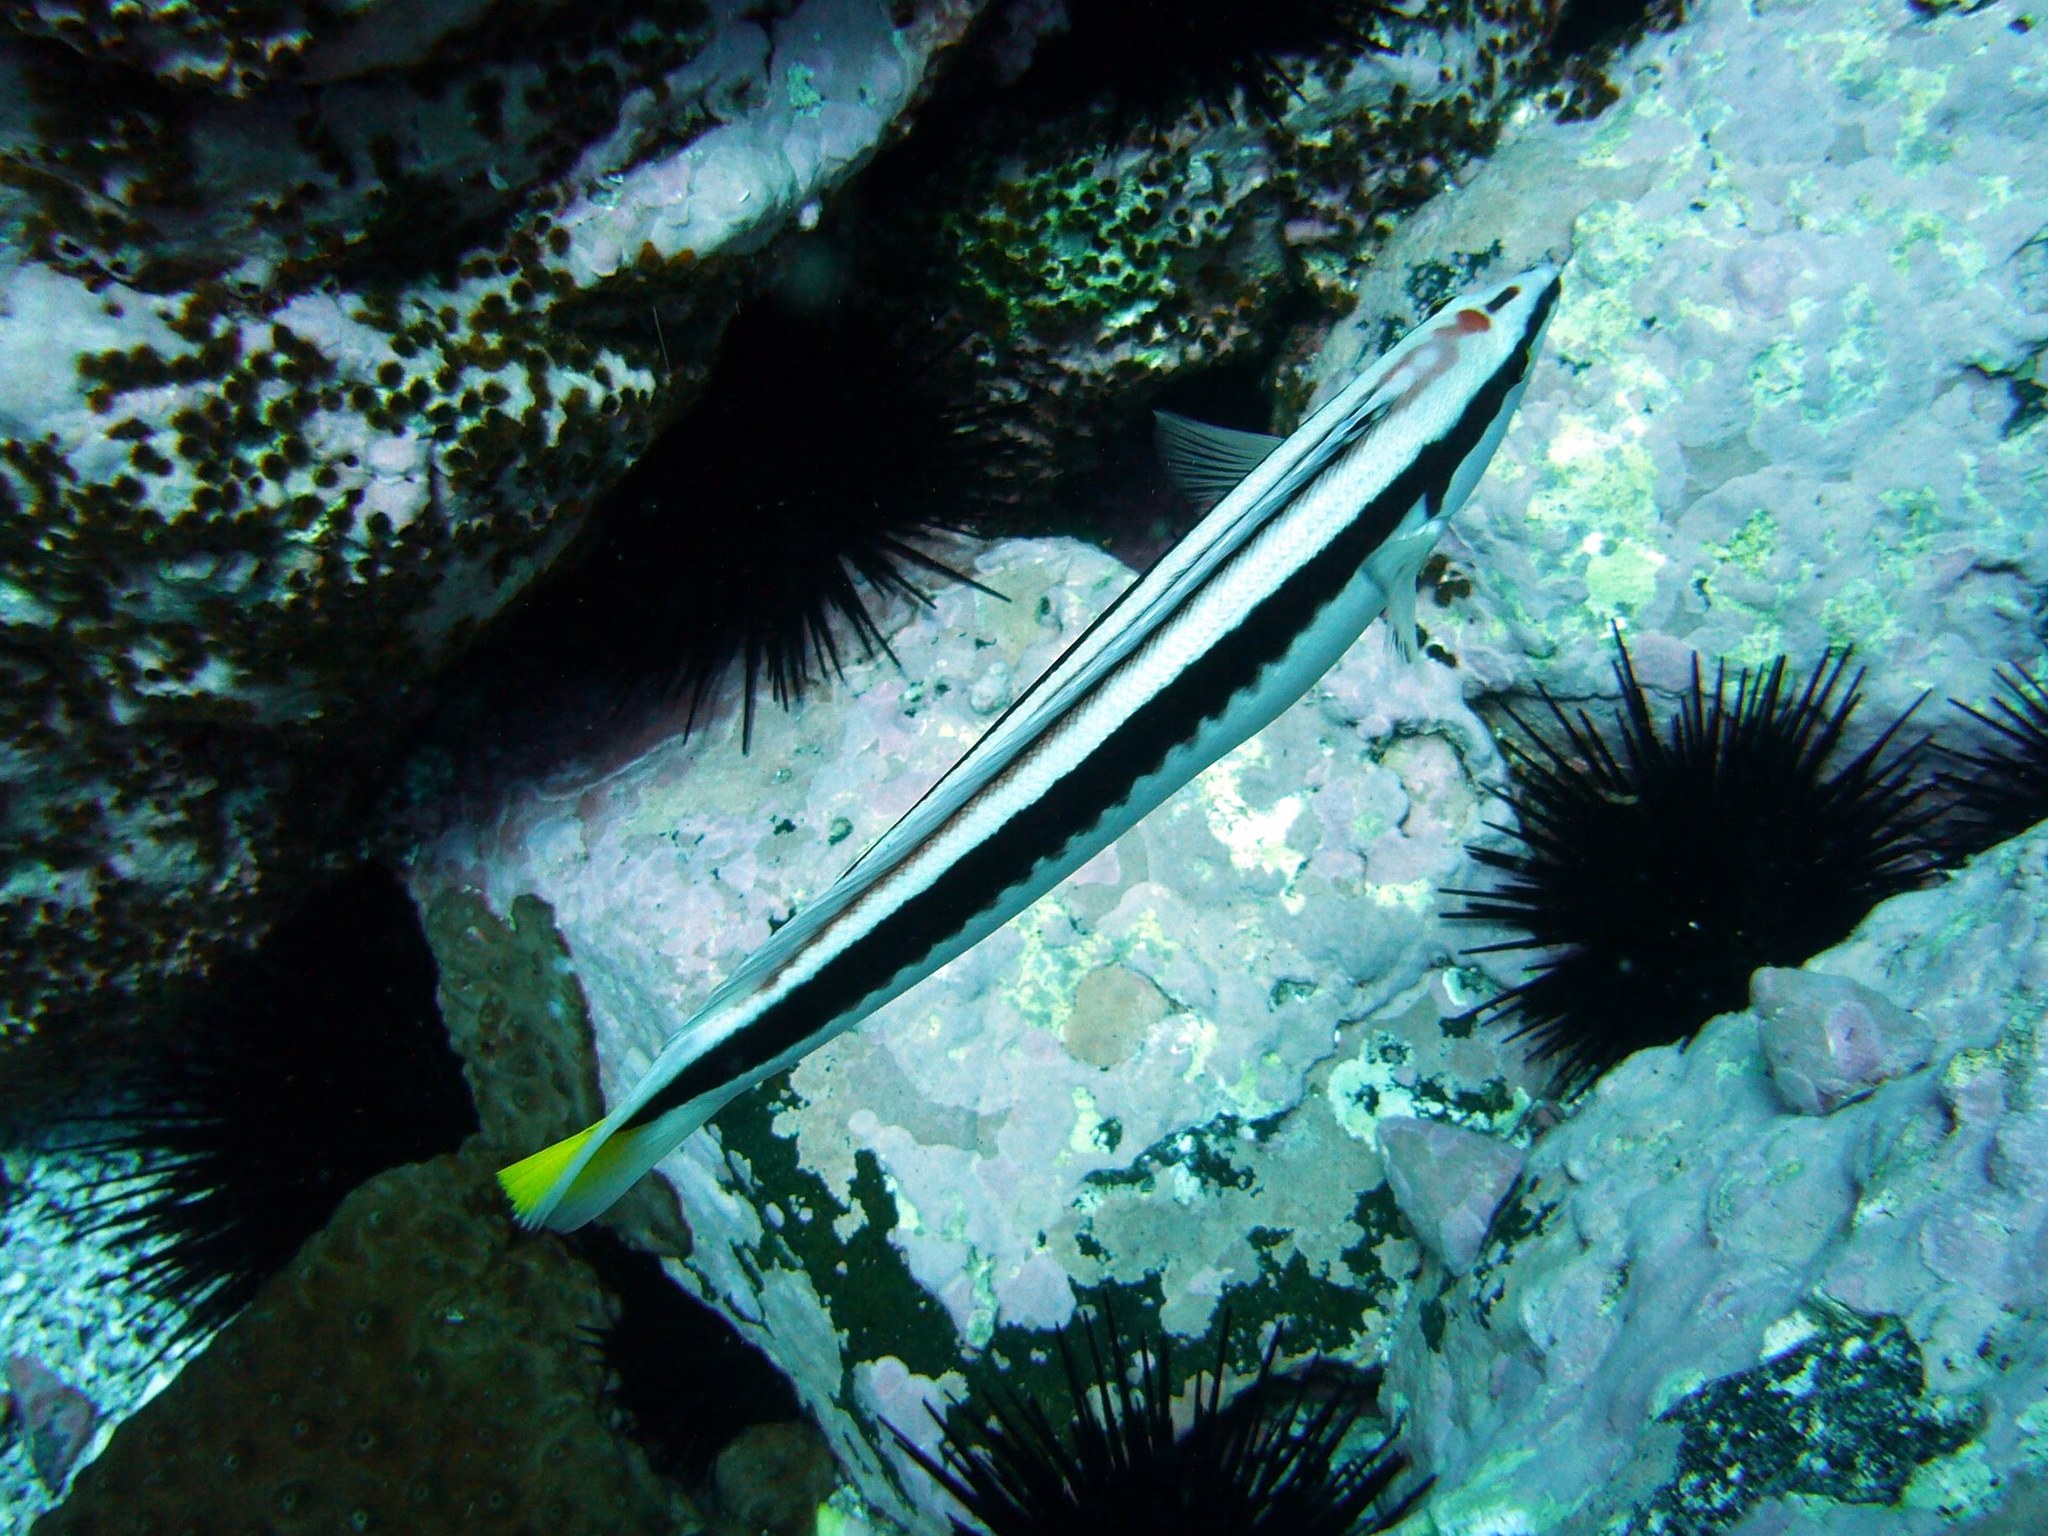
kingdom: Animalia
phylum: Chordata
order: Perciformes
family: Labridae
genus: Coris
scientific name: Coris picta
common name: Combfish
